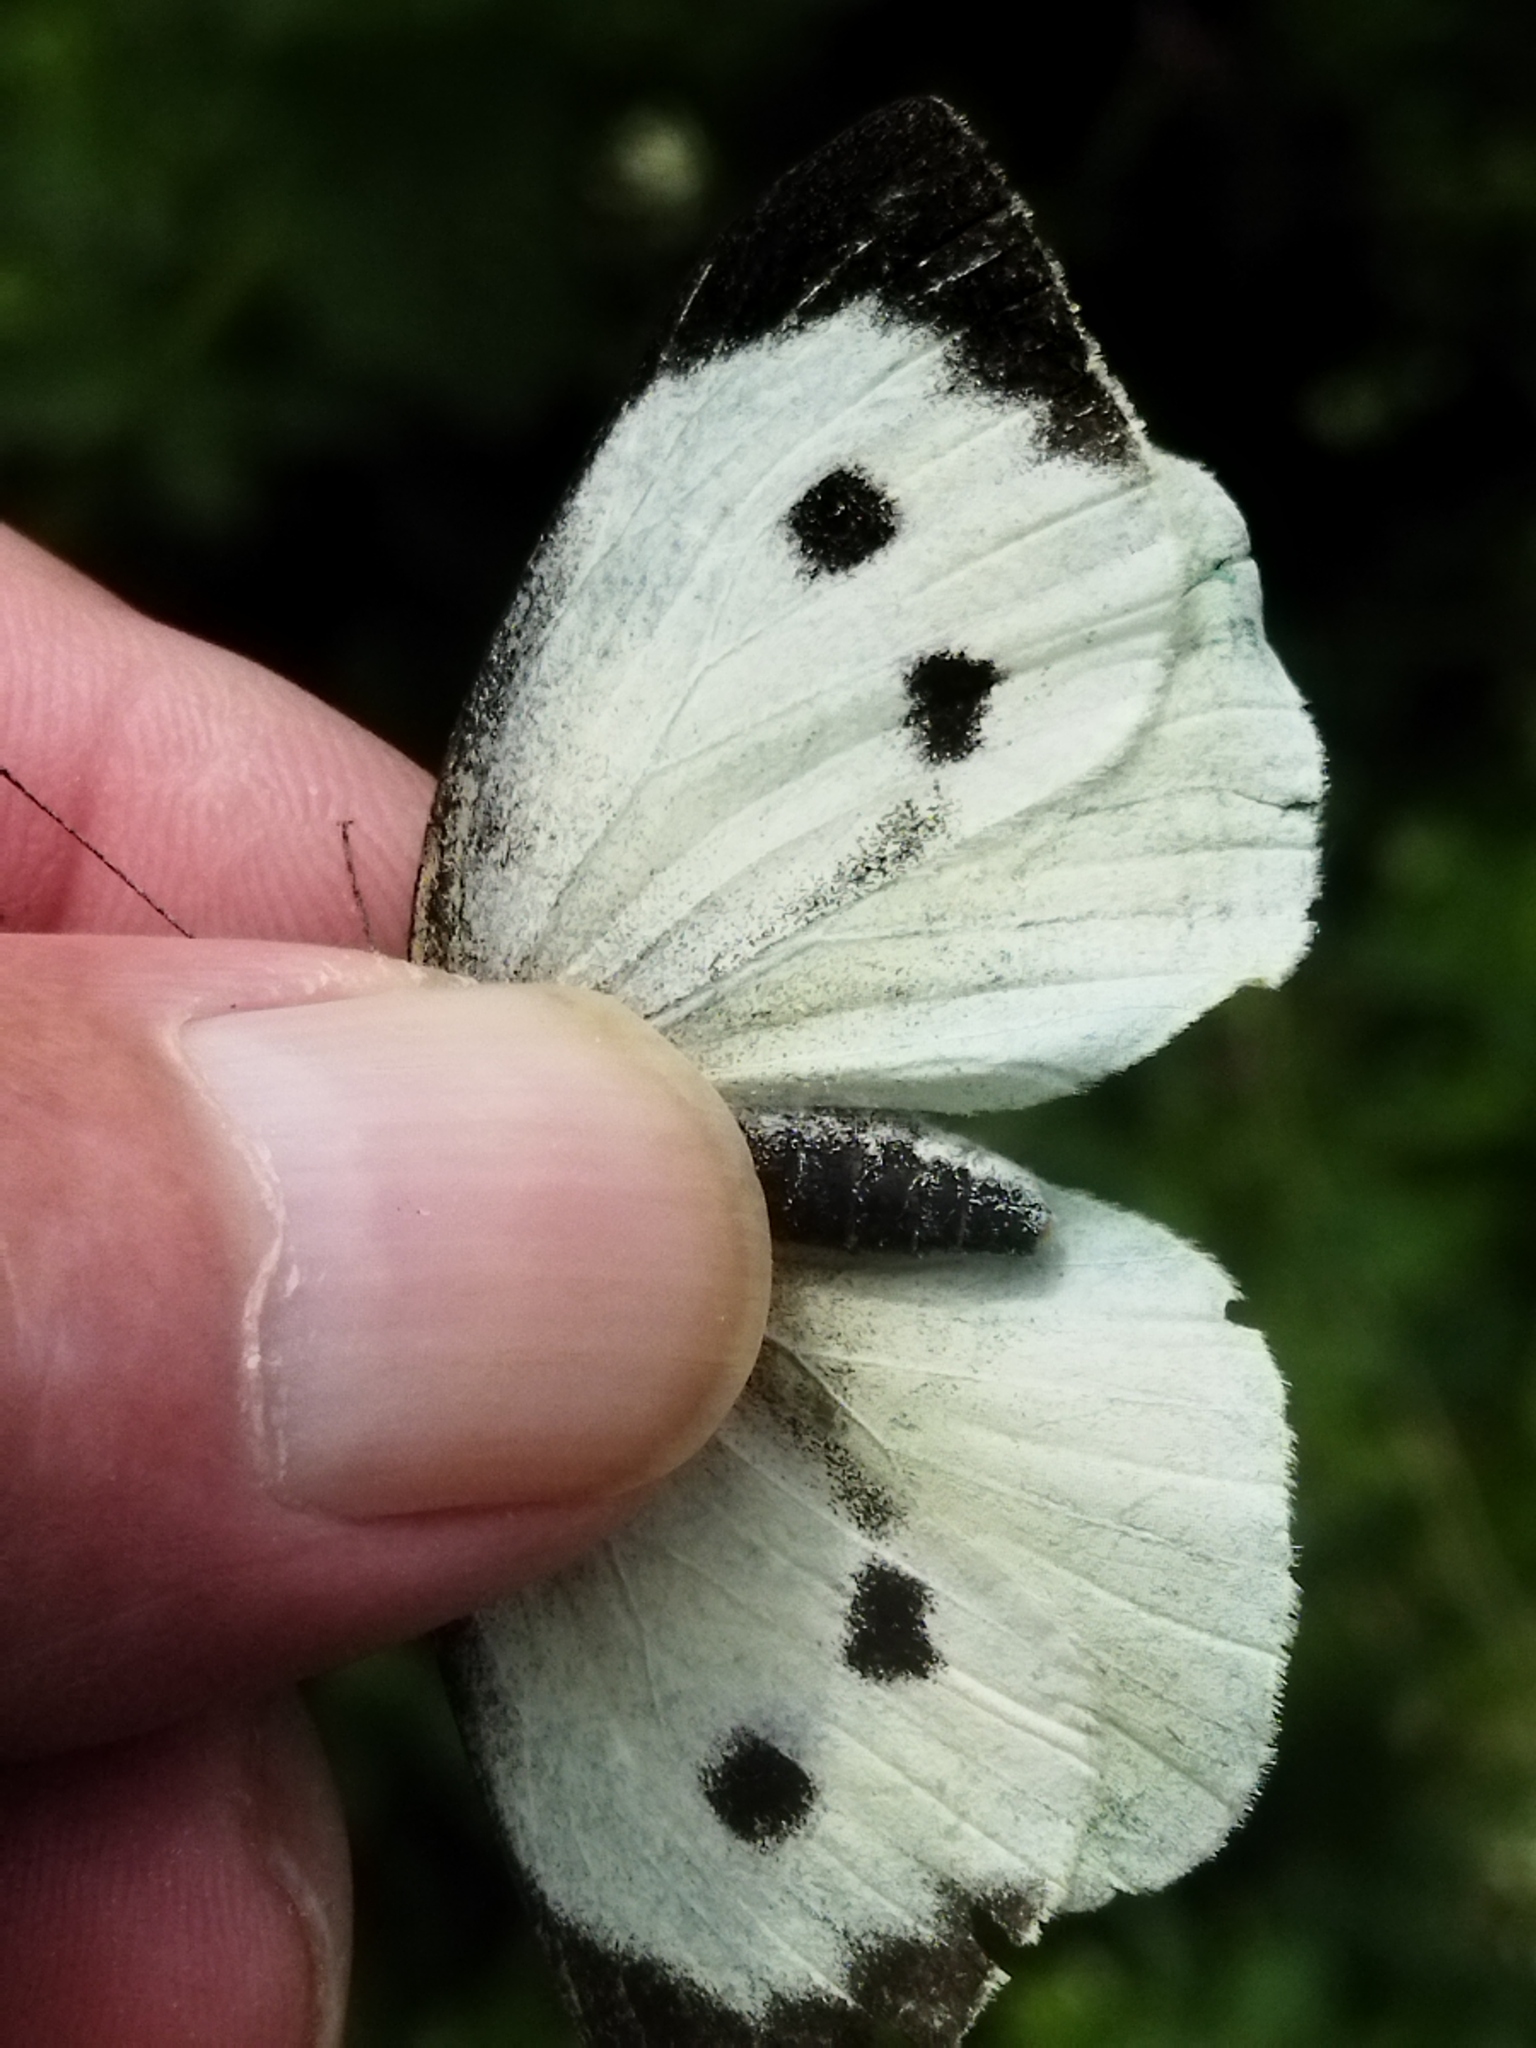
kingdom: Animalia
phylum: Arthropoda
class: Insecta
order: Lepidoptera
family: Pieridae
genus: Pieris
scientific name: Pieris brassicae
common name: Large white
